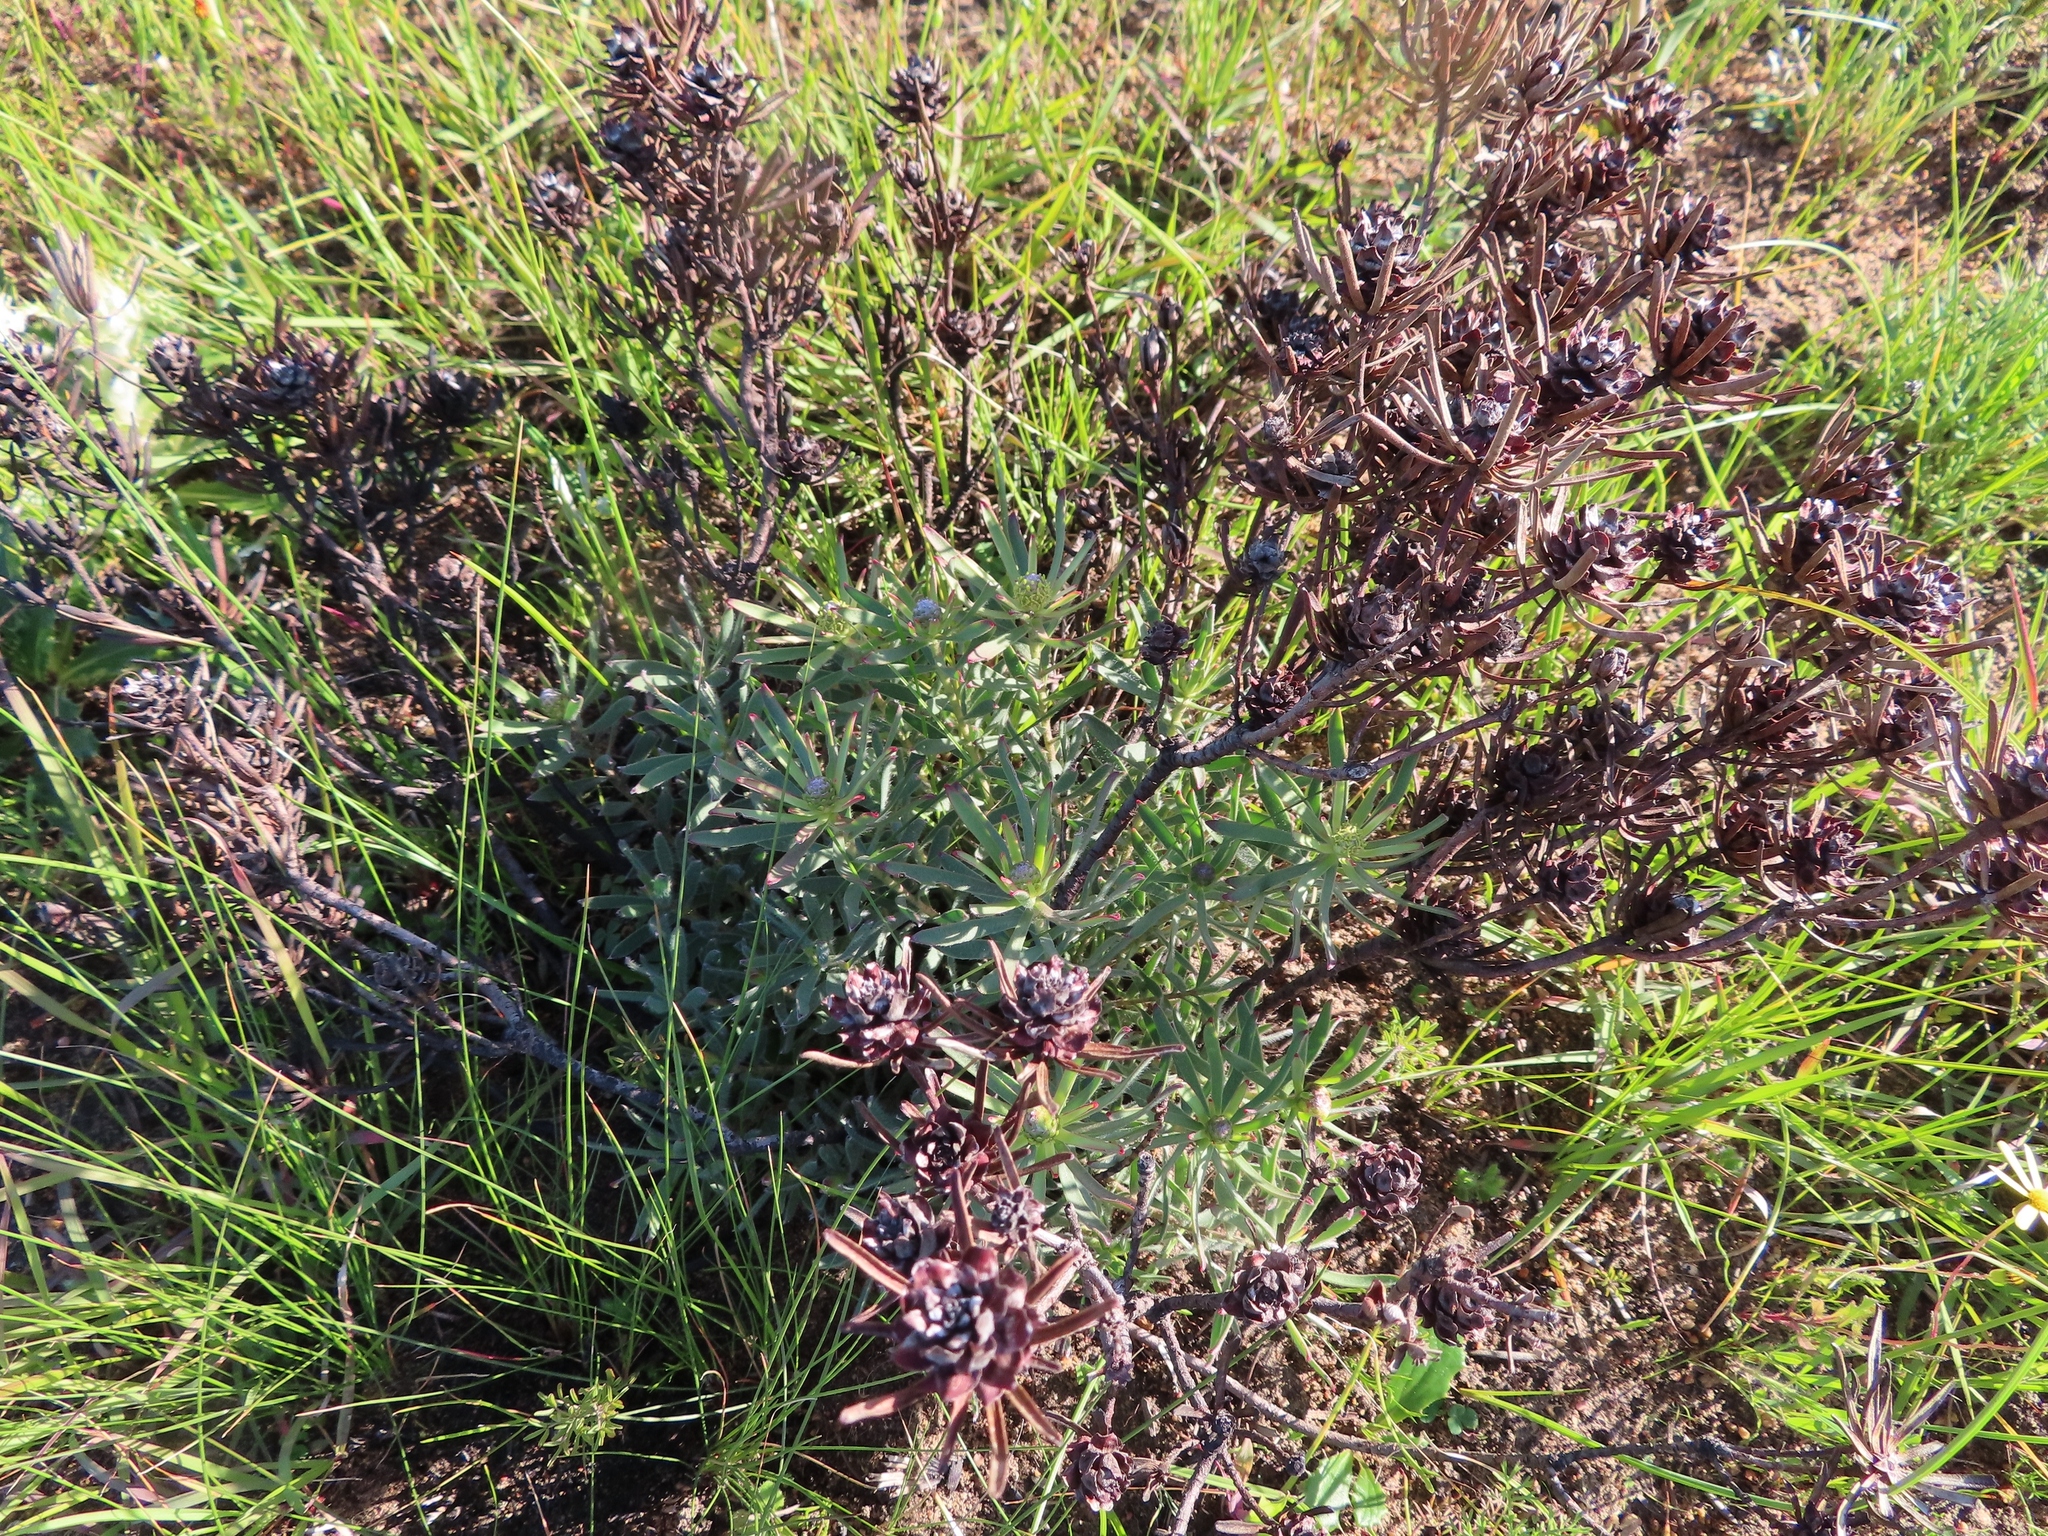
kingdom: Plantae
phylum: Tracheophyta
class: Magnoliopsida
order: Proteales
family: Proteaceae
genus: Leucadendron
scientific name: Leucadendron lanigerum
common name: Shale conebush
